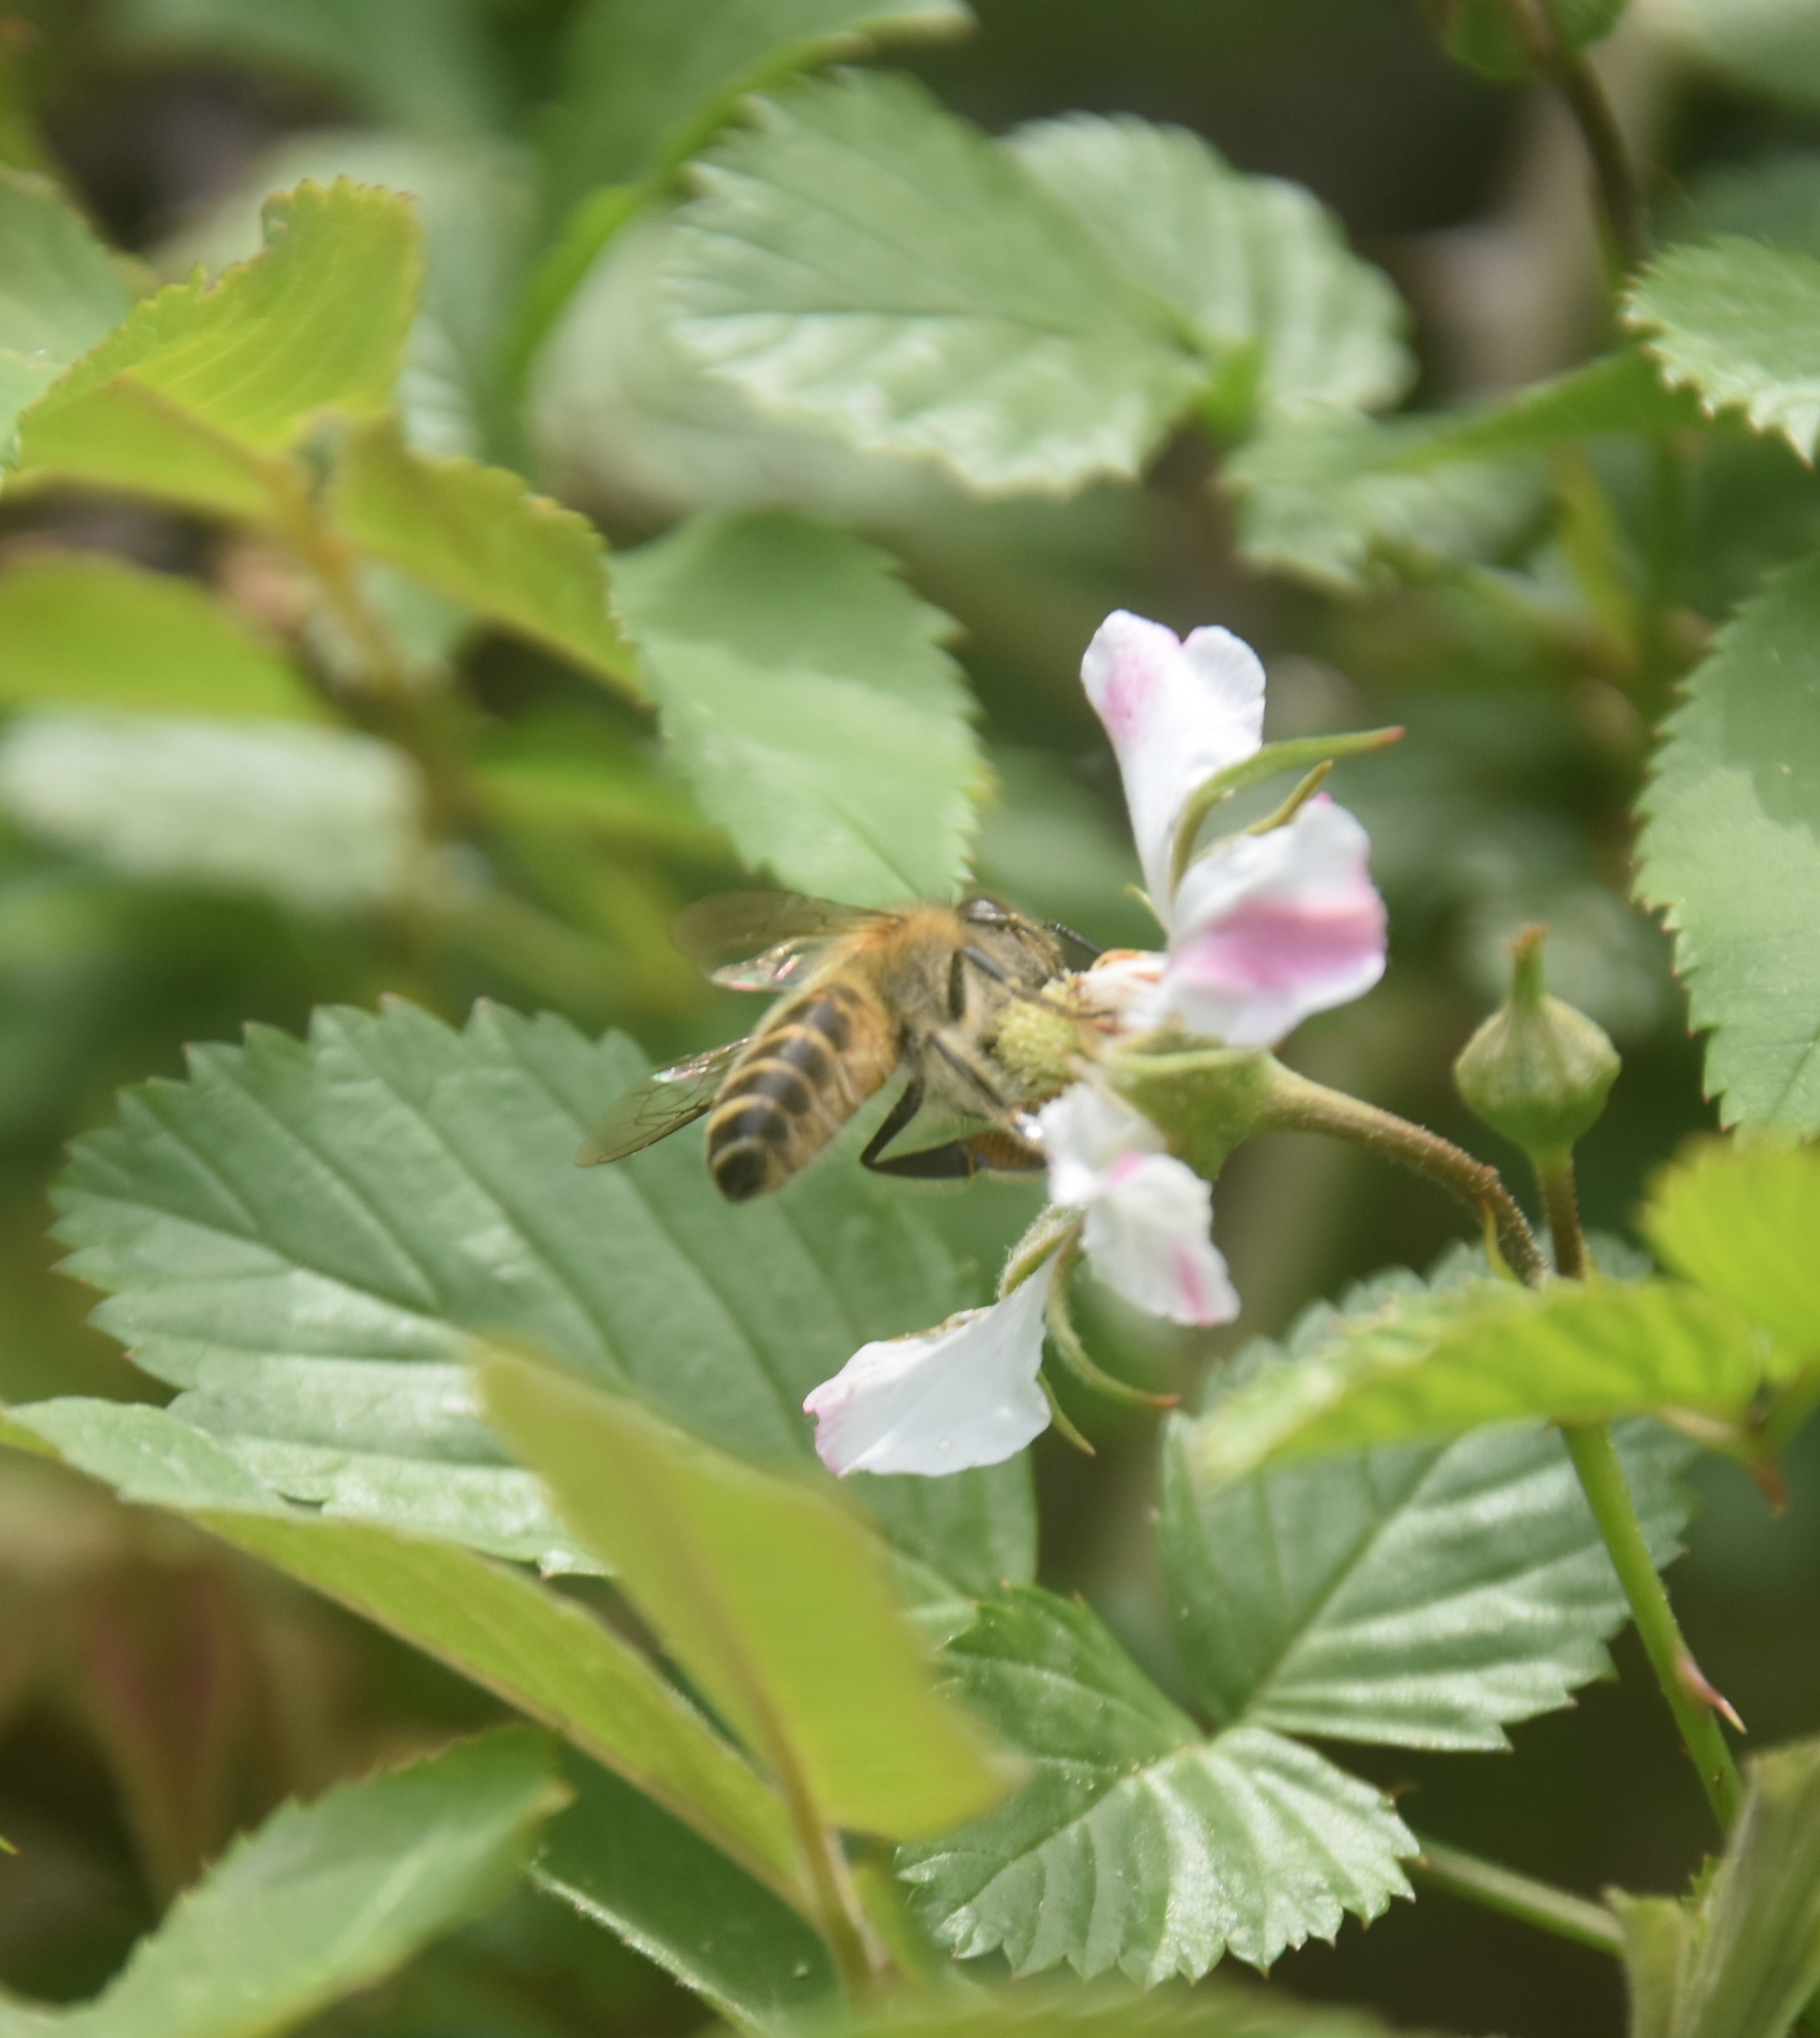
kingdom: Animalia
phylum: Arthropoda
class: Insecta
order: Hymenoptera
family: Apidae
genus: Apis
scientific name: Apis cerana
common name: Honey bee
